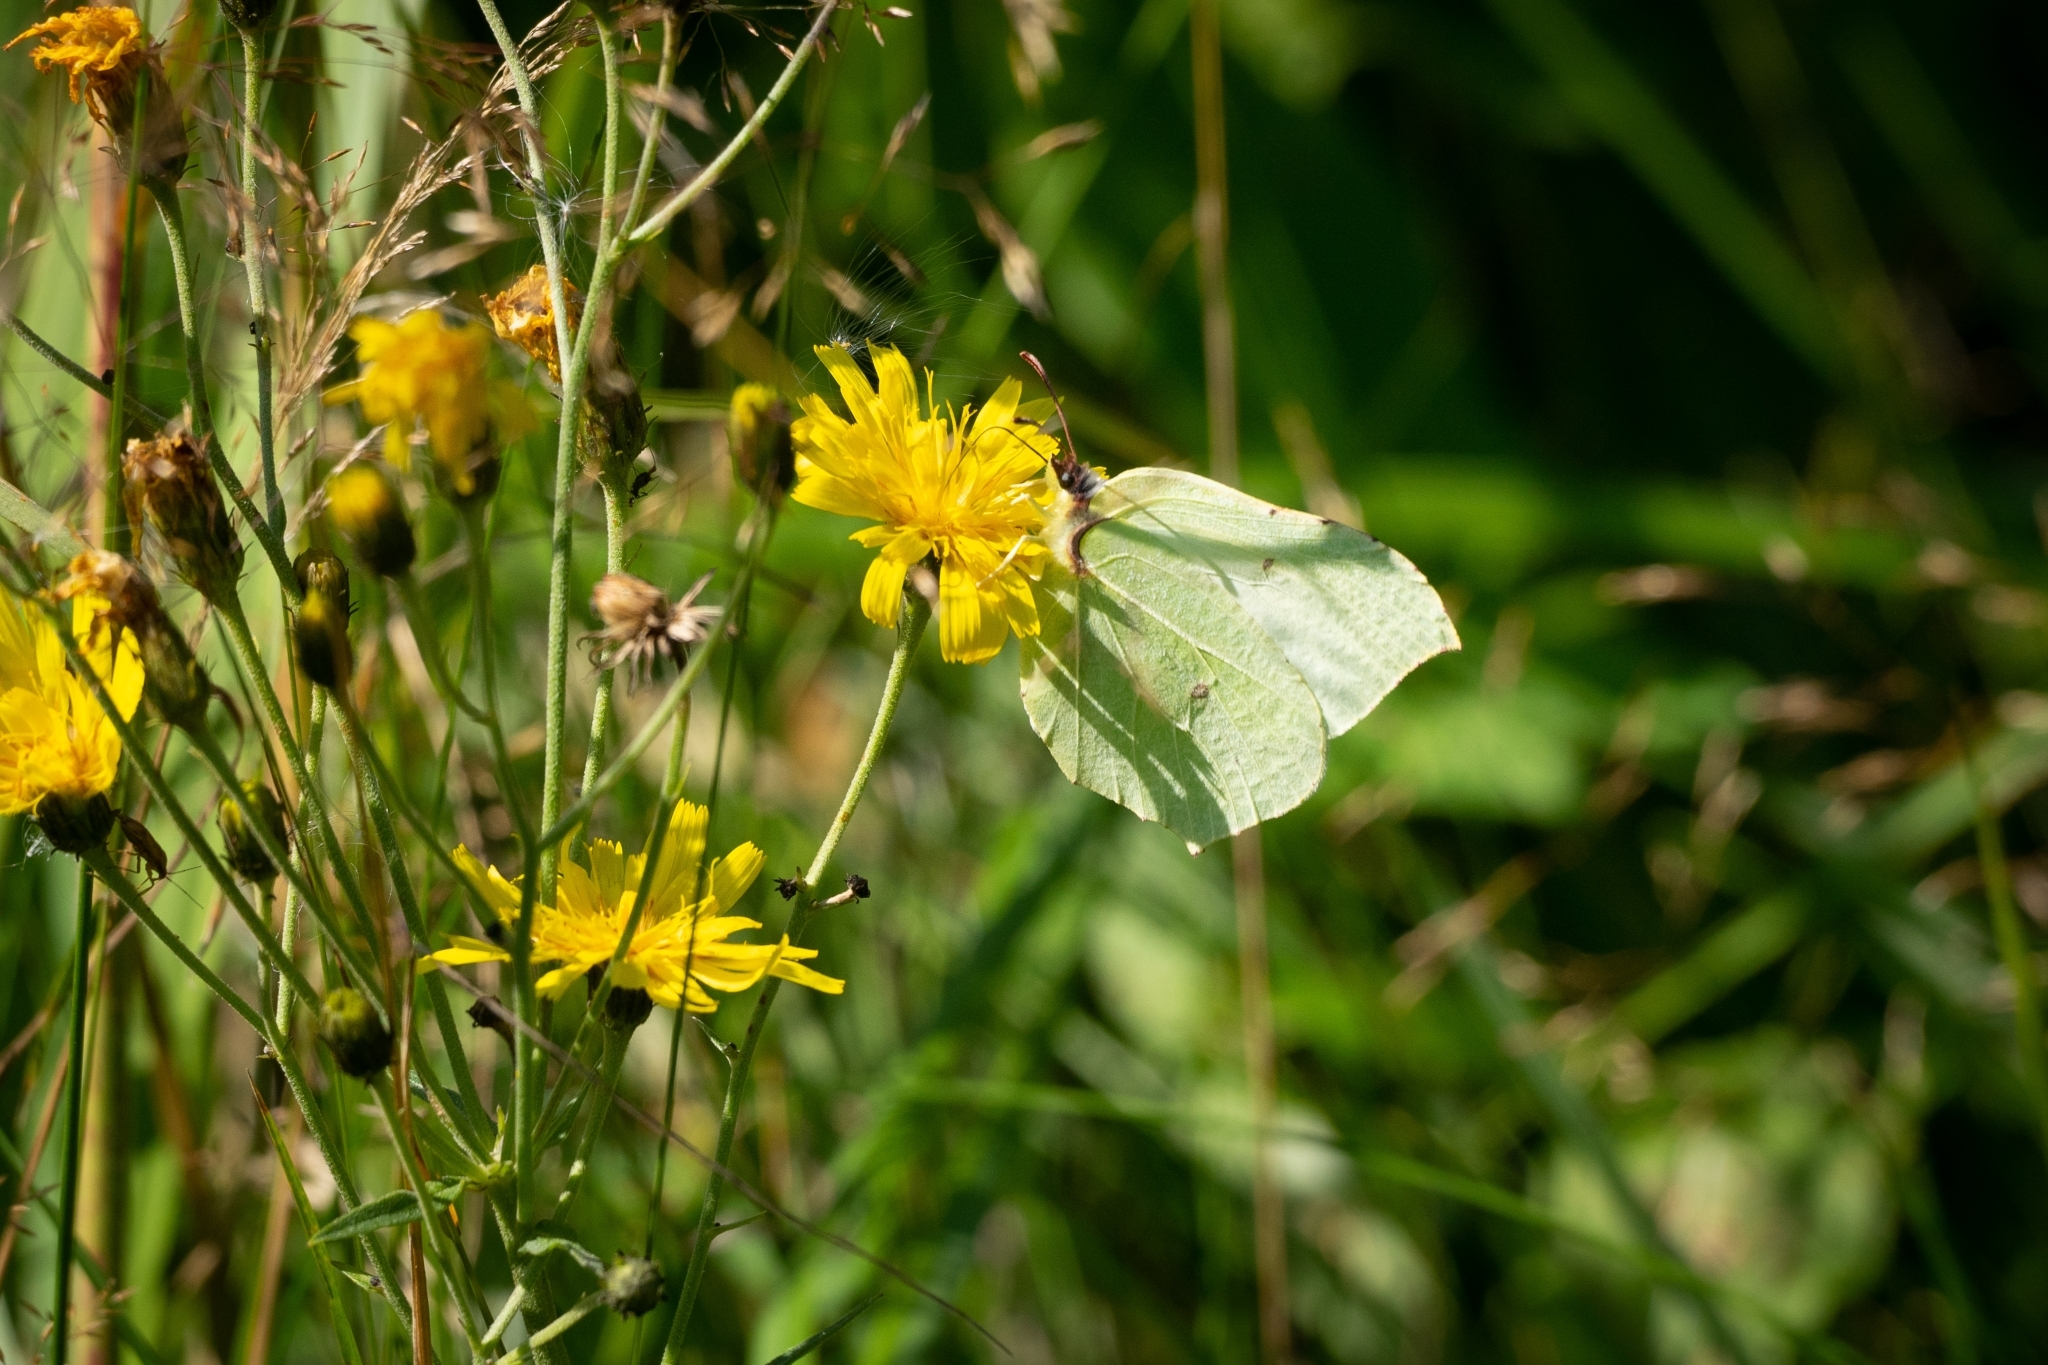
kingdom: Animalia
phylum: Arthropoda
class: Insecta
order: Lepidoptera
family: Pieridae
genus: Gonepteryx
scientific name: Gonepteryx rhamni
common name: Brimstone
